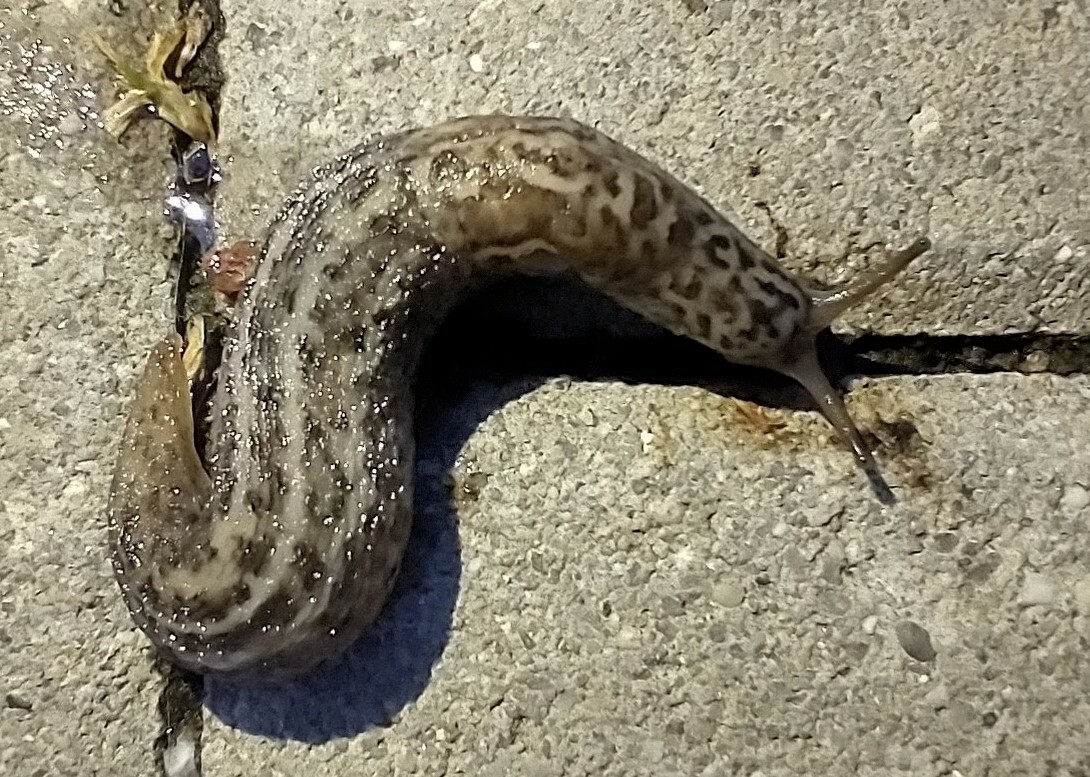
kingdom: Animalia
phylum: Mollusca
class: Gastropoda
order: Stylommatophora
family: Limacidae
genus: Limax
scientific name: Limax maximus
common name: Great grey slug
